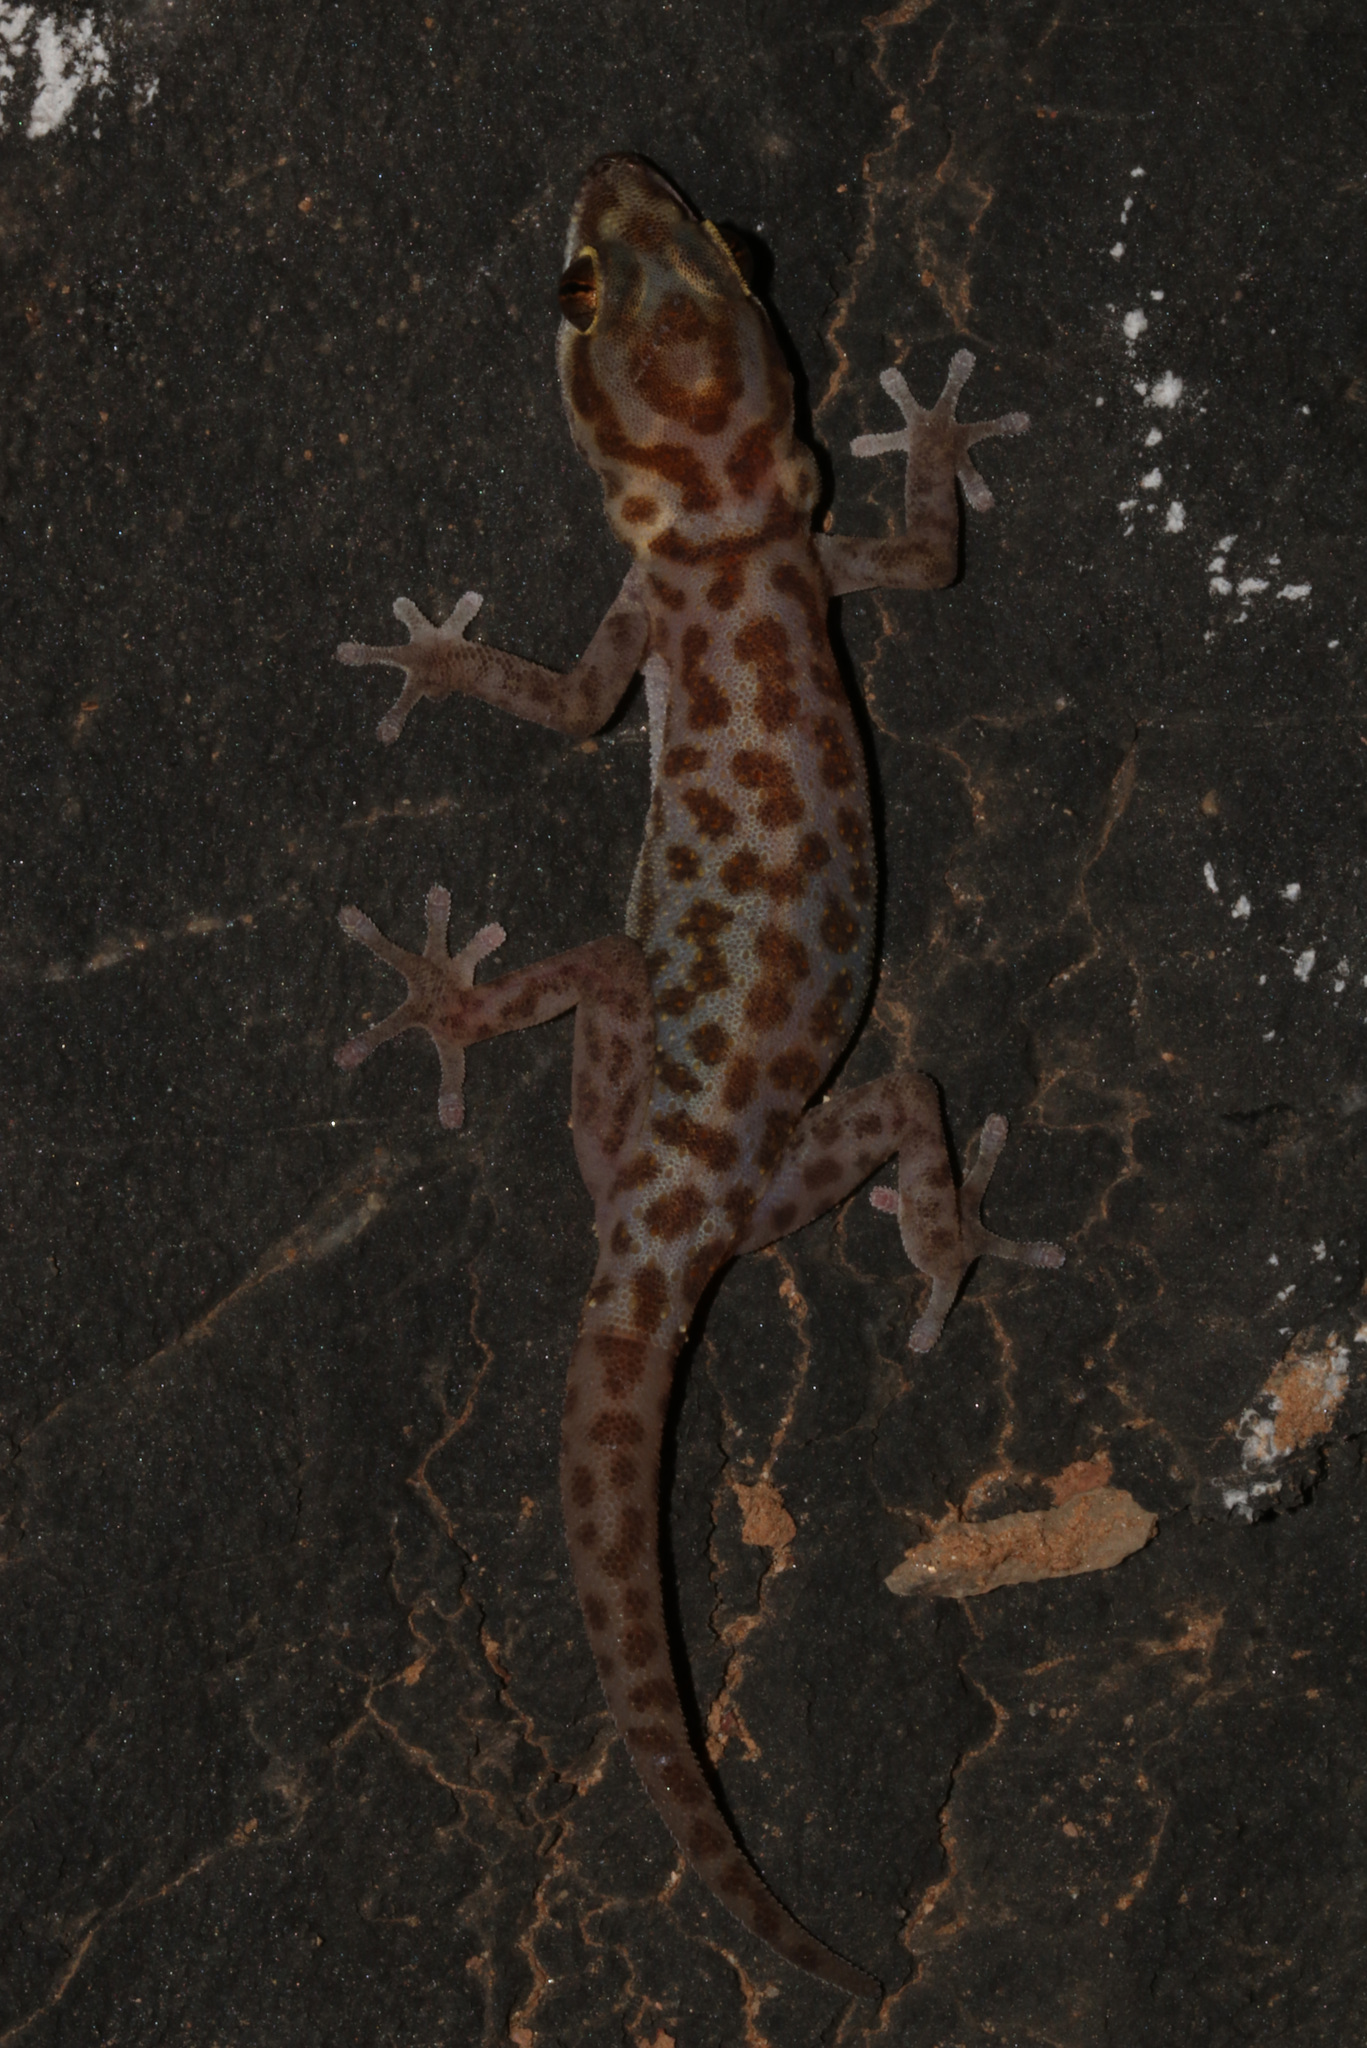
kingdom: Animalia
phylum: Chordata
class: Squamata
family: Gekkonidae
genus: Pachydactylus
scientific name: Pachydactylus carinatus
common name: Richtersveld gecko
